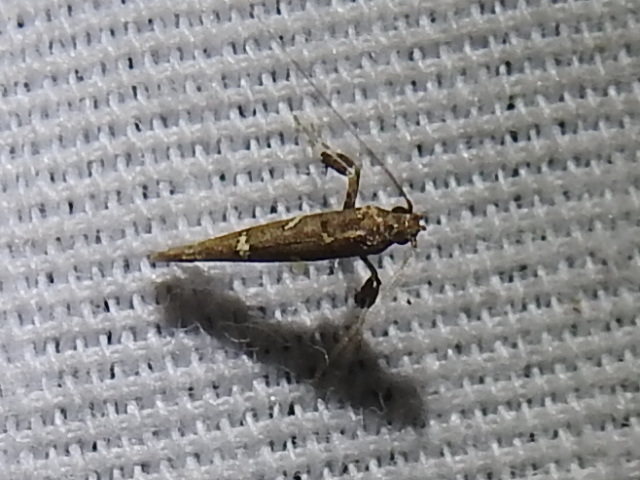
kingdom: Animalia
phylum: Arthropoda
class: Insecta
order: Lepidoptera
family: Gracillariidae
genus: Caloptilia
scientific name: Caloptilia triadicae
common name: Tallow leaf roller
